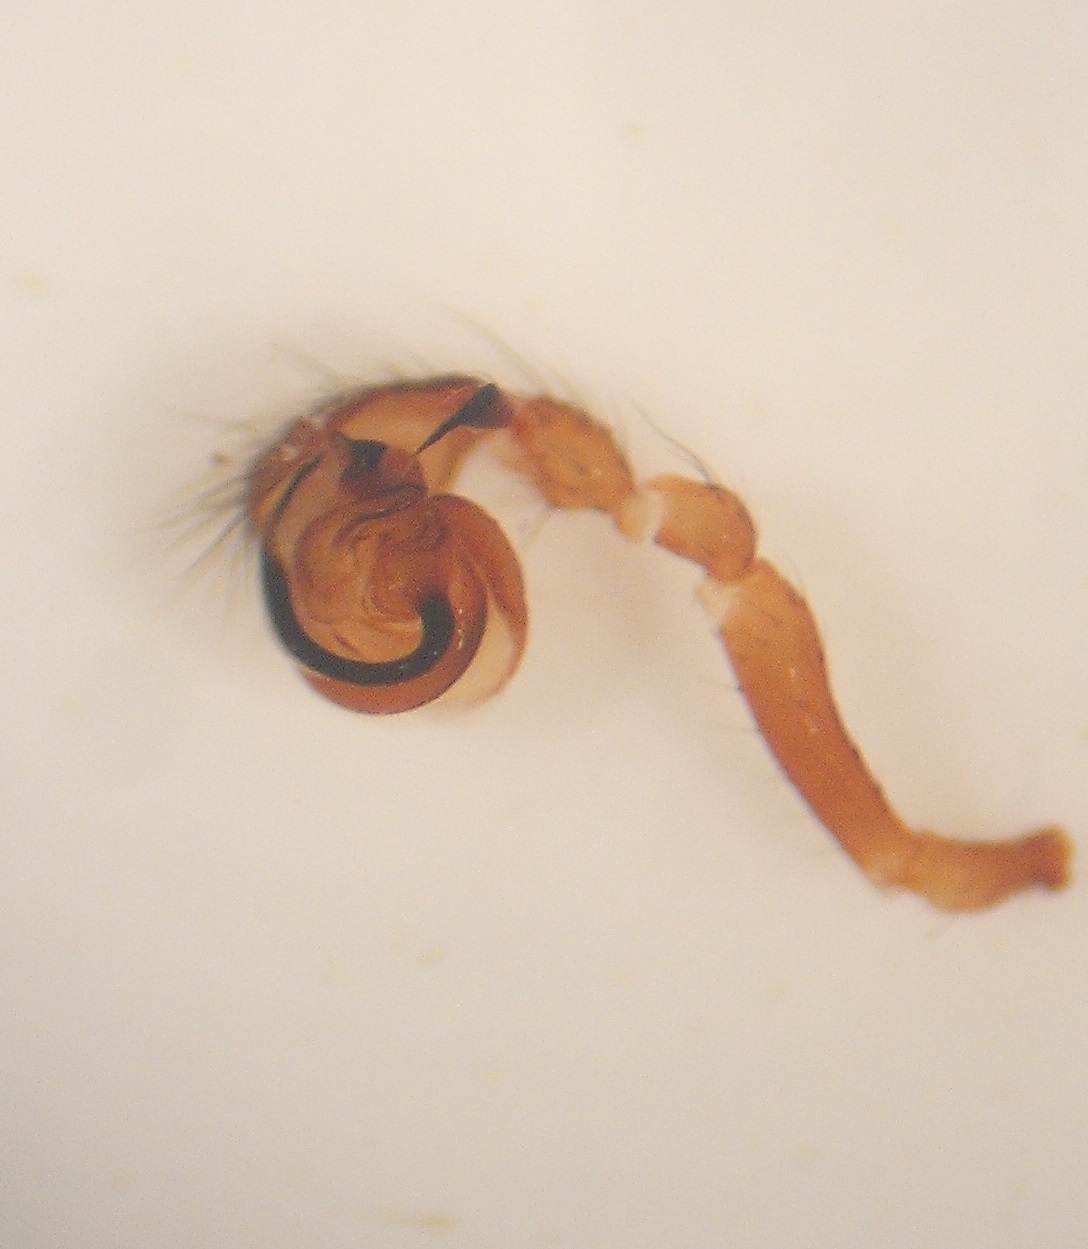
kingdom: Animalia
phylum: Arthropoda
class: Arachnida
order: Araneae
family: Malkaridae
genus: Whakamoke
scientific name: Whakamoke orongorongo
